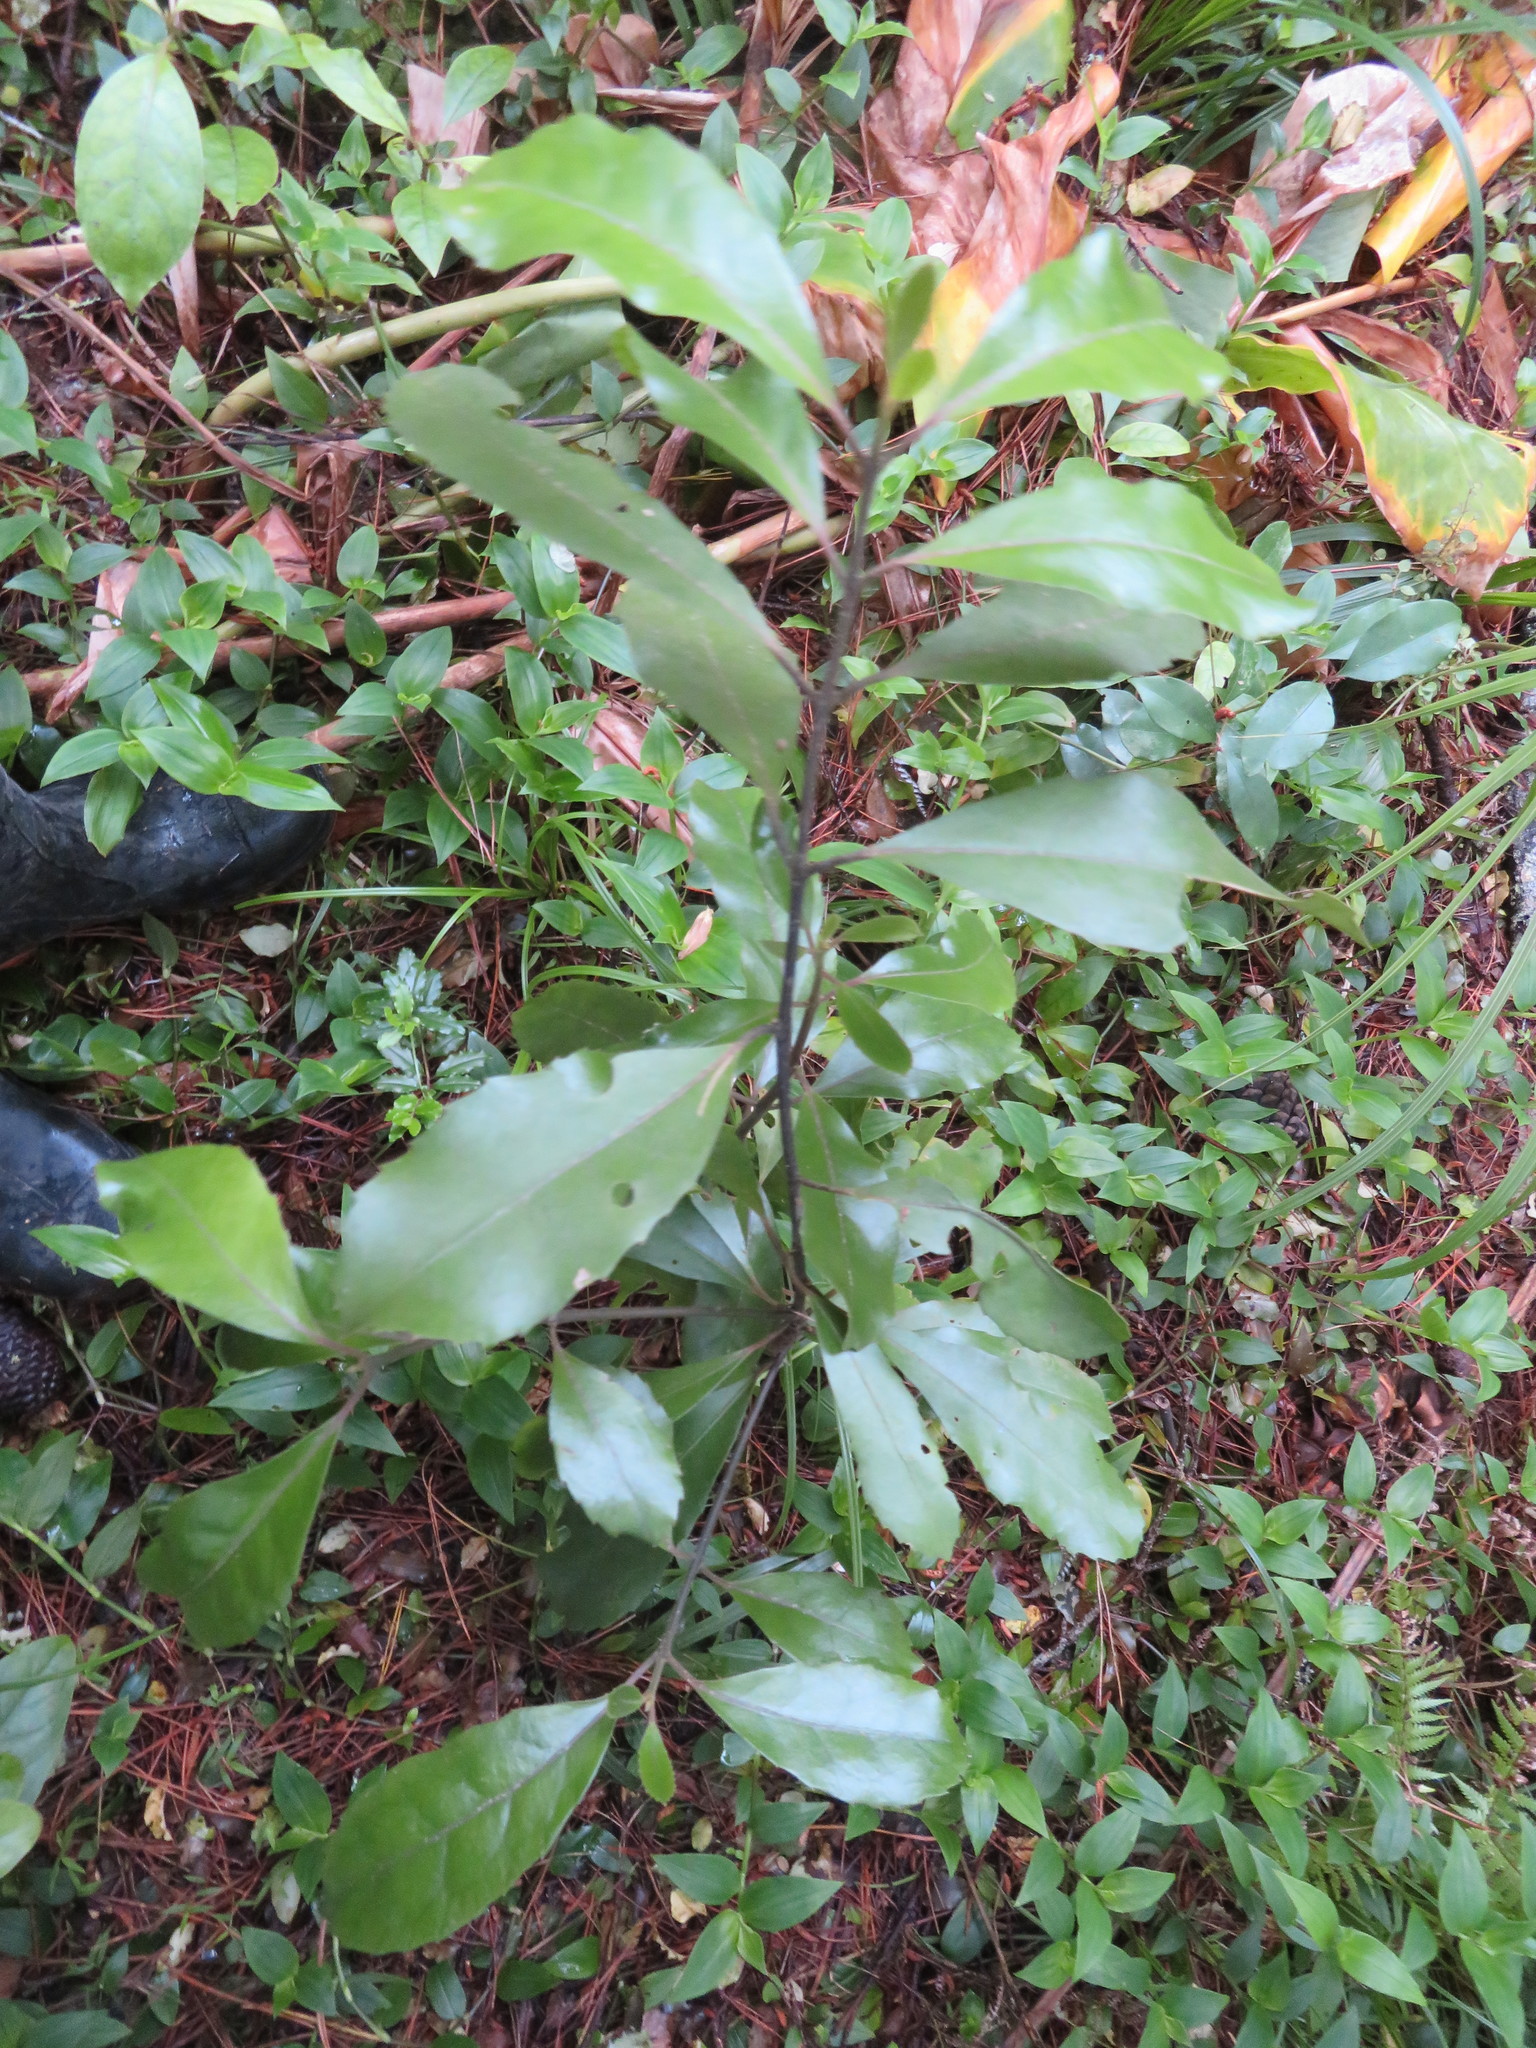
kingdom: Plantae
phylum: Tracheophyta
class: Magnoliopsida
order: Laurales
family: Monimiaceae
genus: Hedycarya
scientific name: Hedycarya arborea
